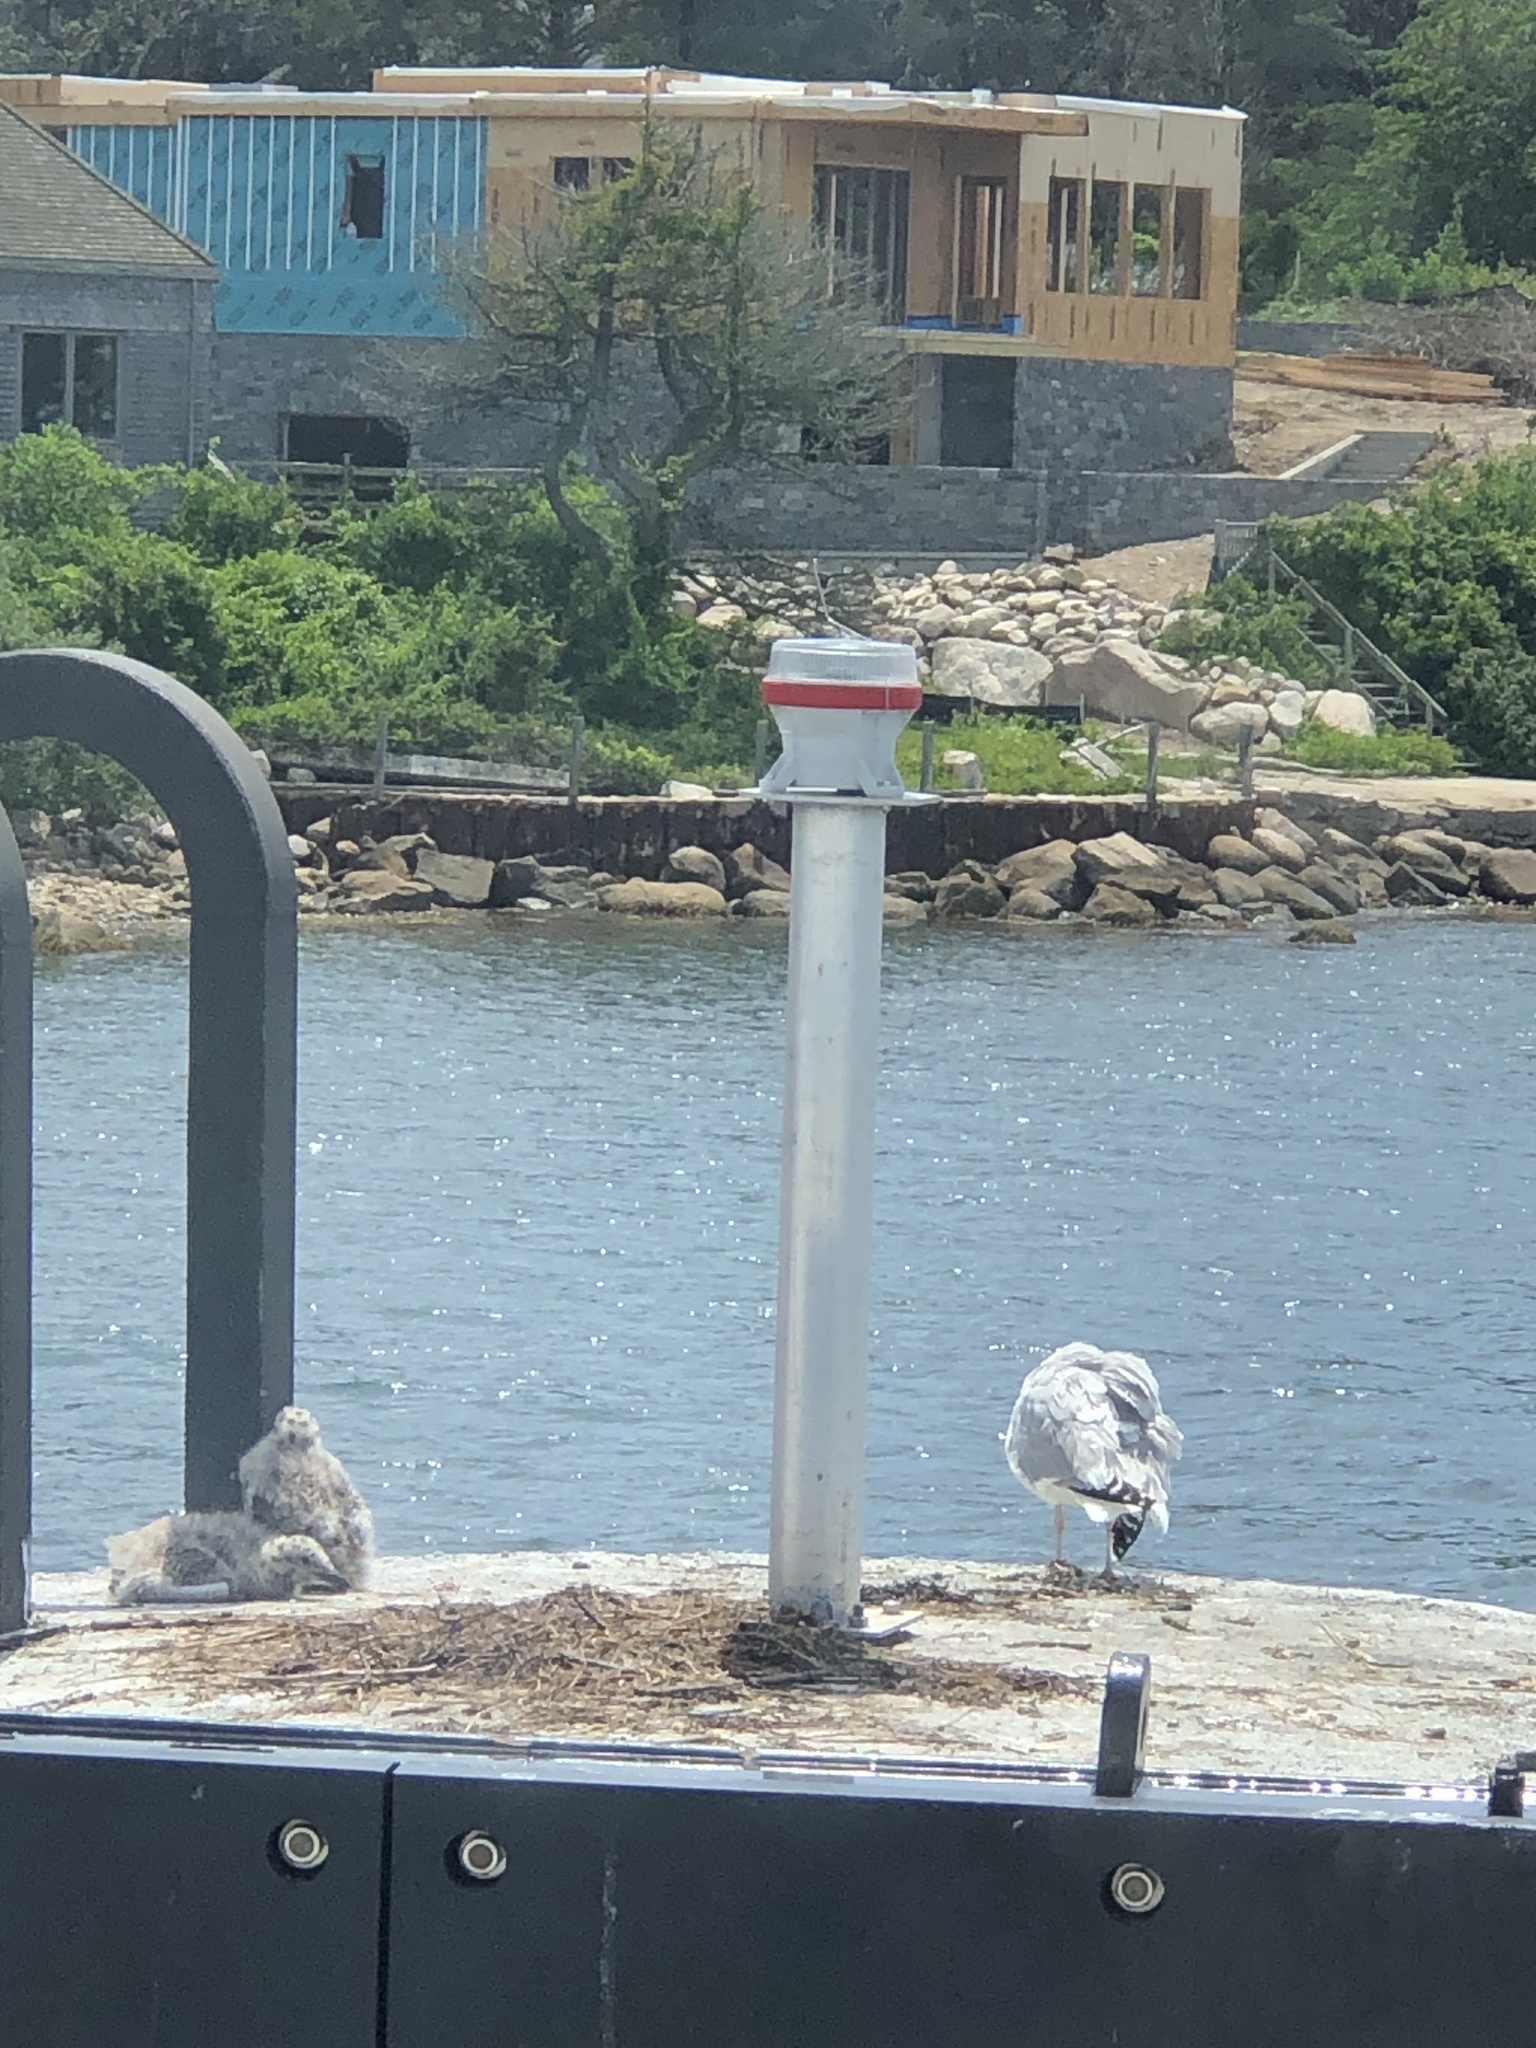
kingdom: Animalia
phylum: Chordata
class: Aves
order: Charadriiformes
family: Laridae
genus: Larus
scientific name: Larus argentatus
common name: Herring gull
